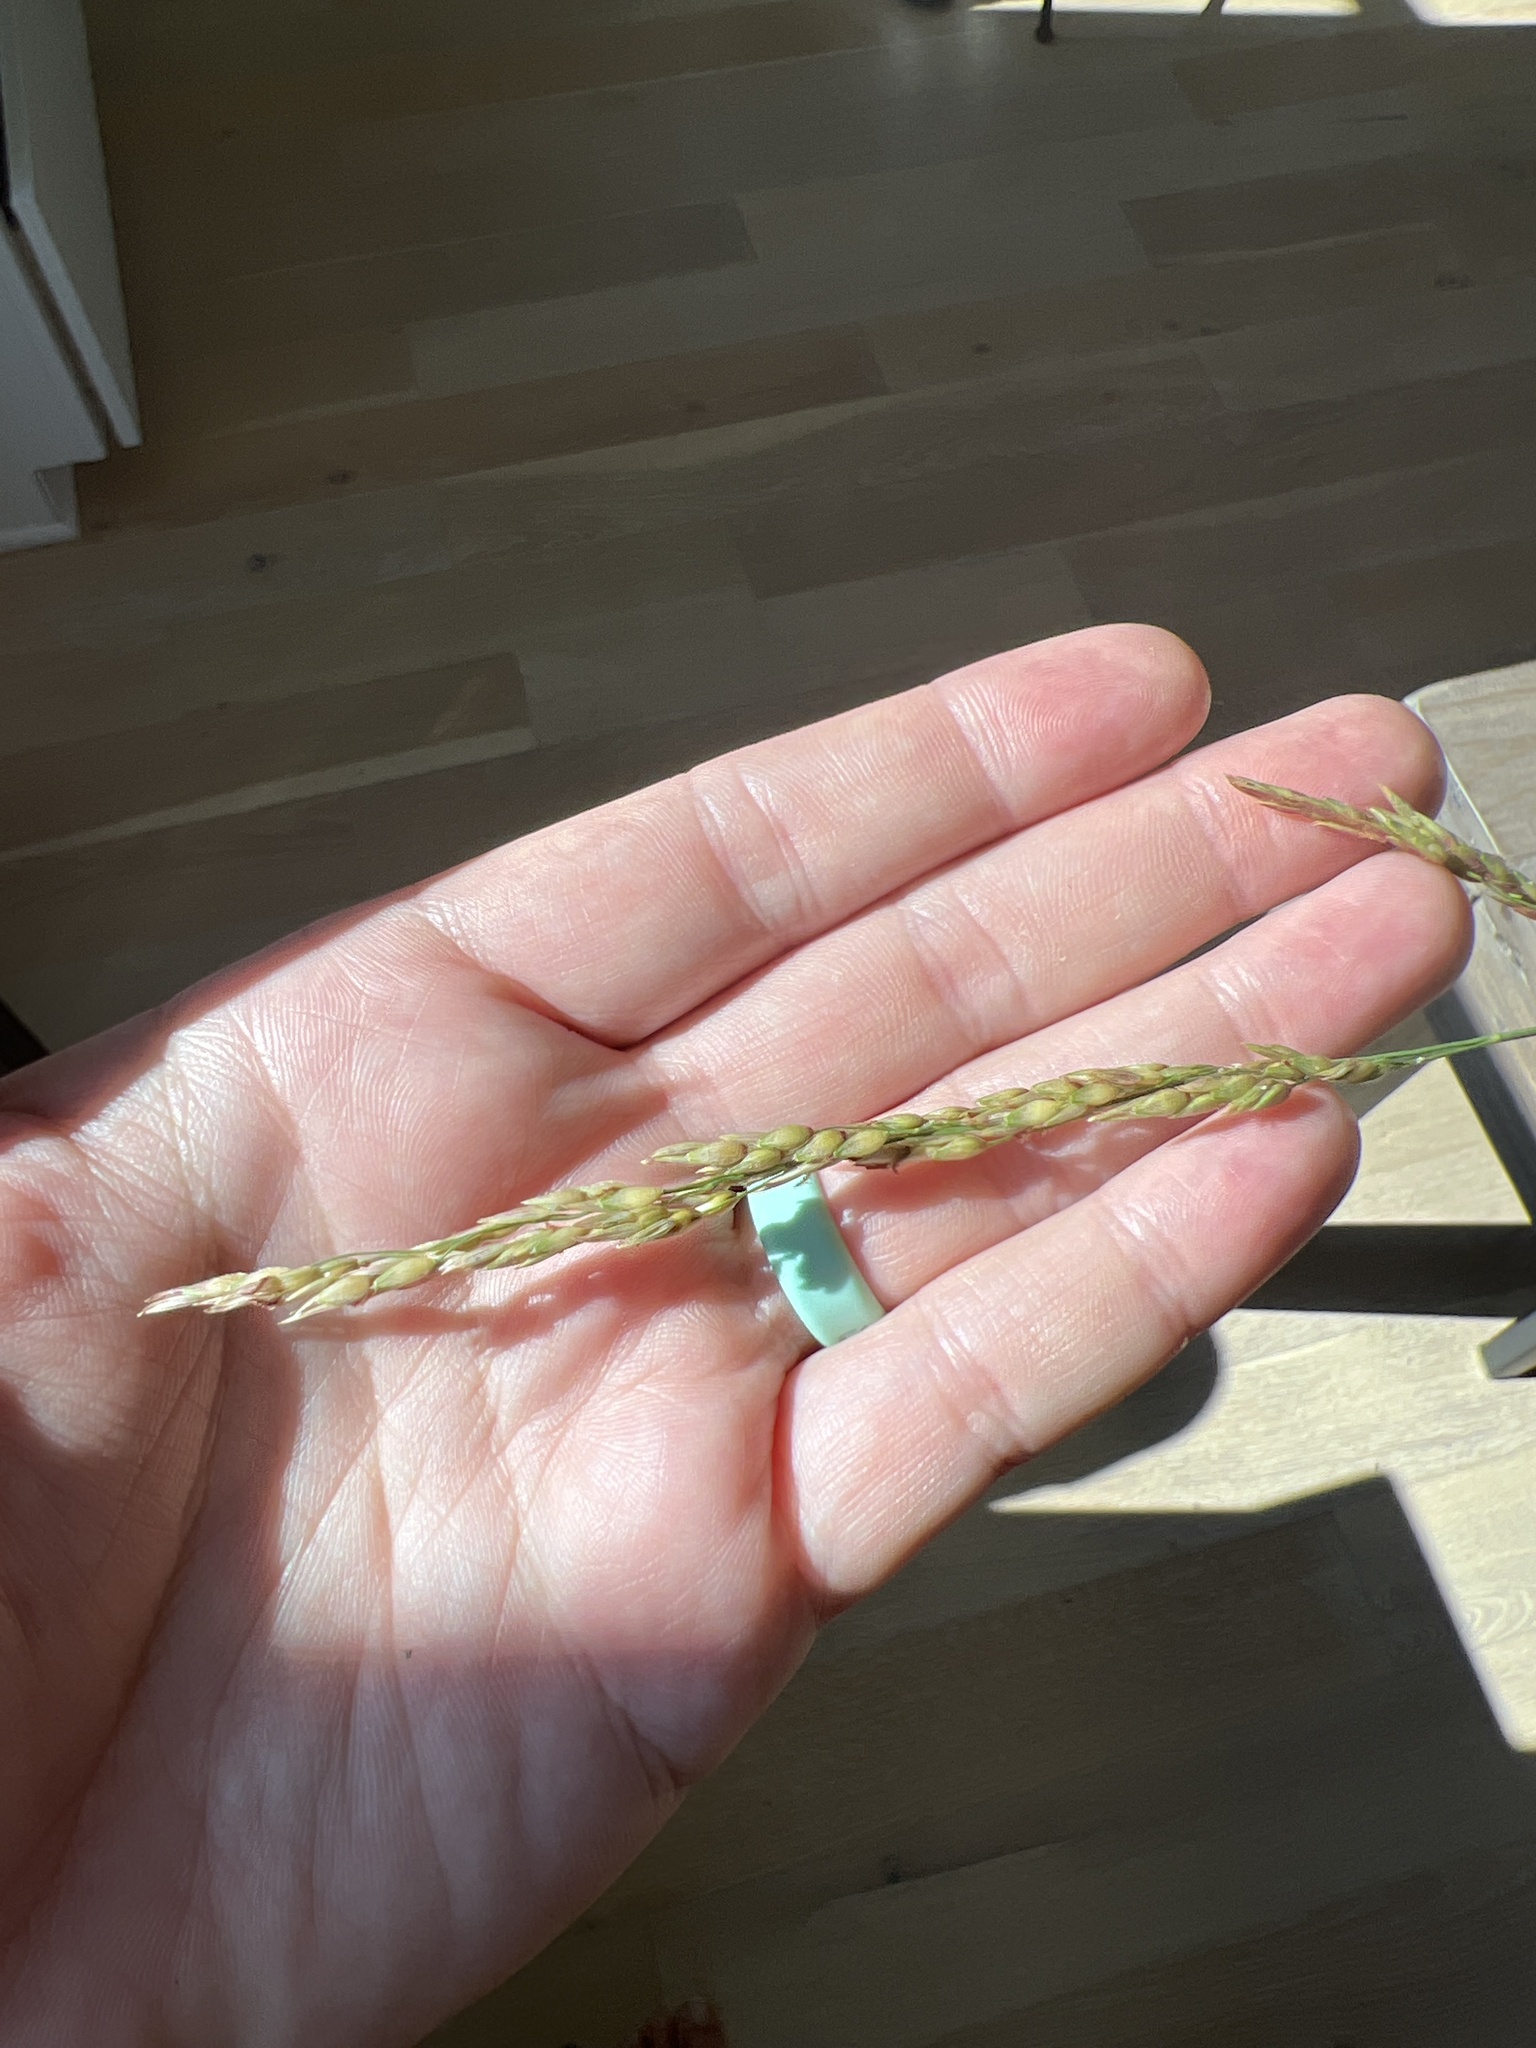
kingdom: Plantae
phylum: Tracheophyta
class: Liliopsida
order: Poales
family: Poaceae
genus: Sorghum
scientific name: Sorghum halepense
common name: Johnson-grass
